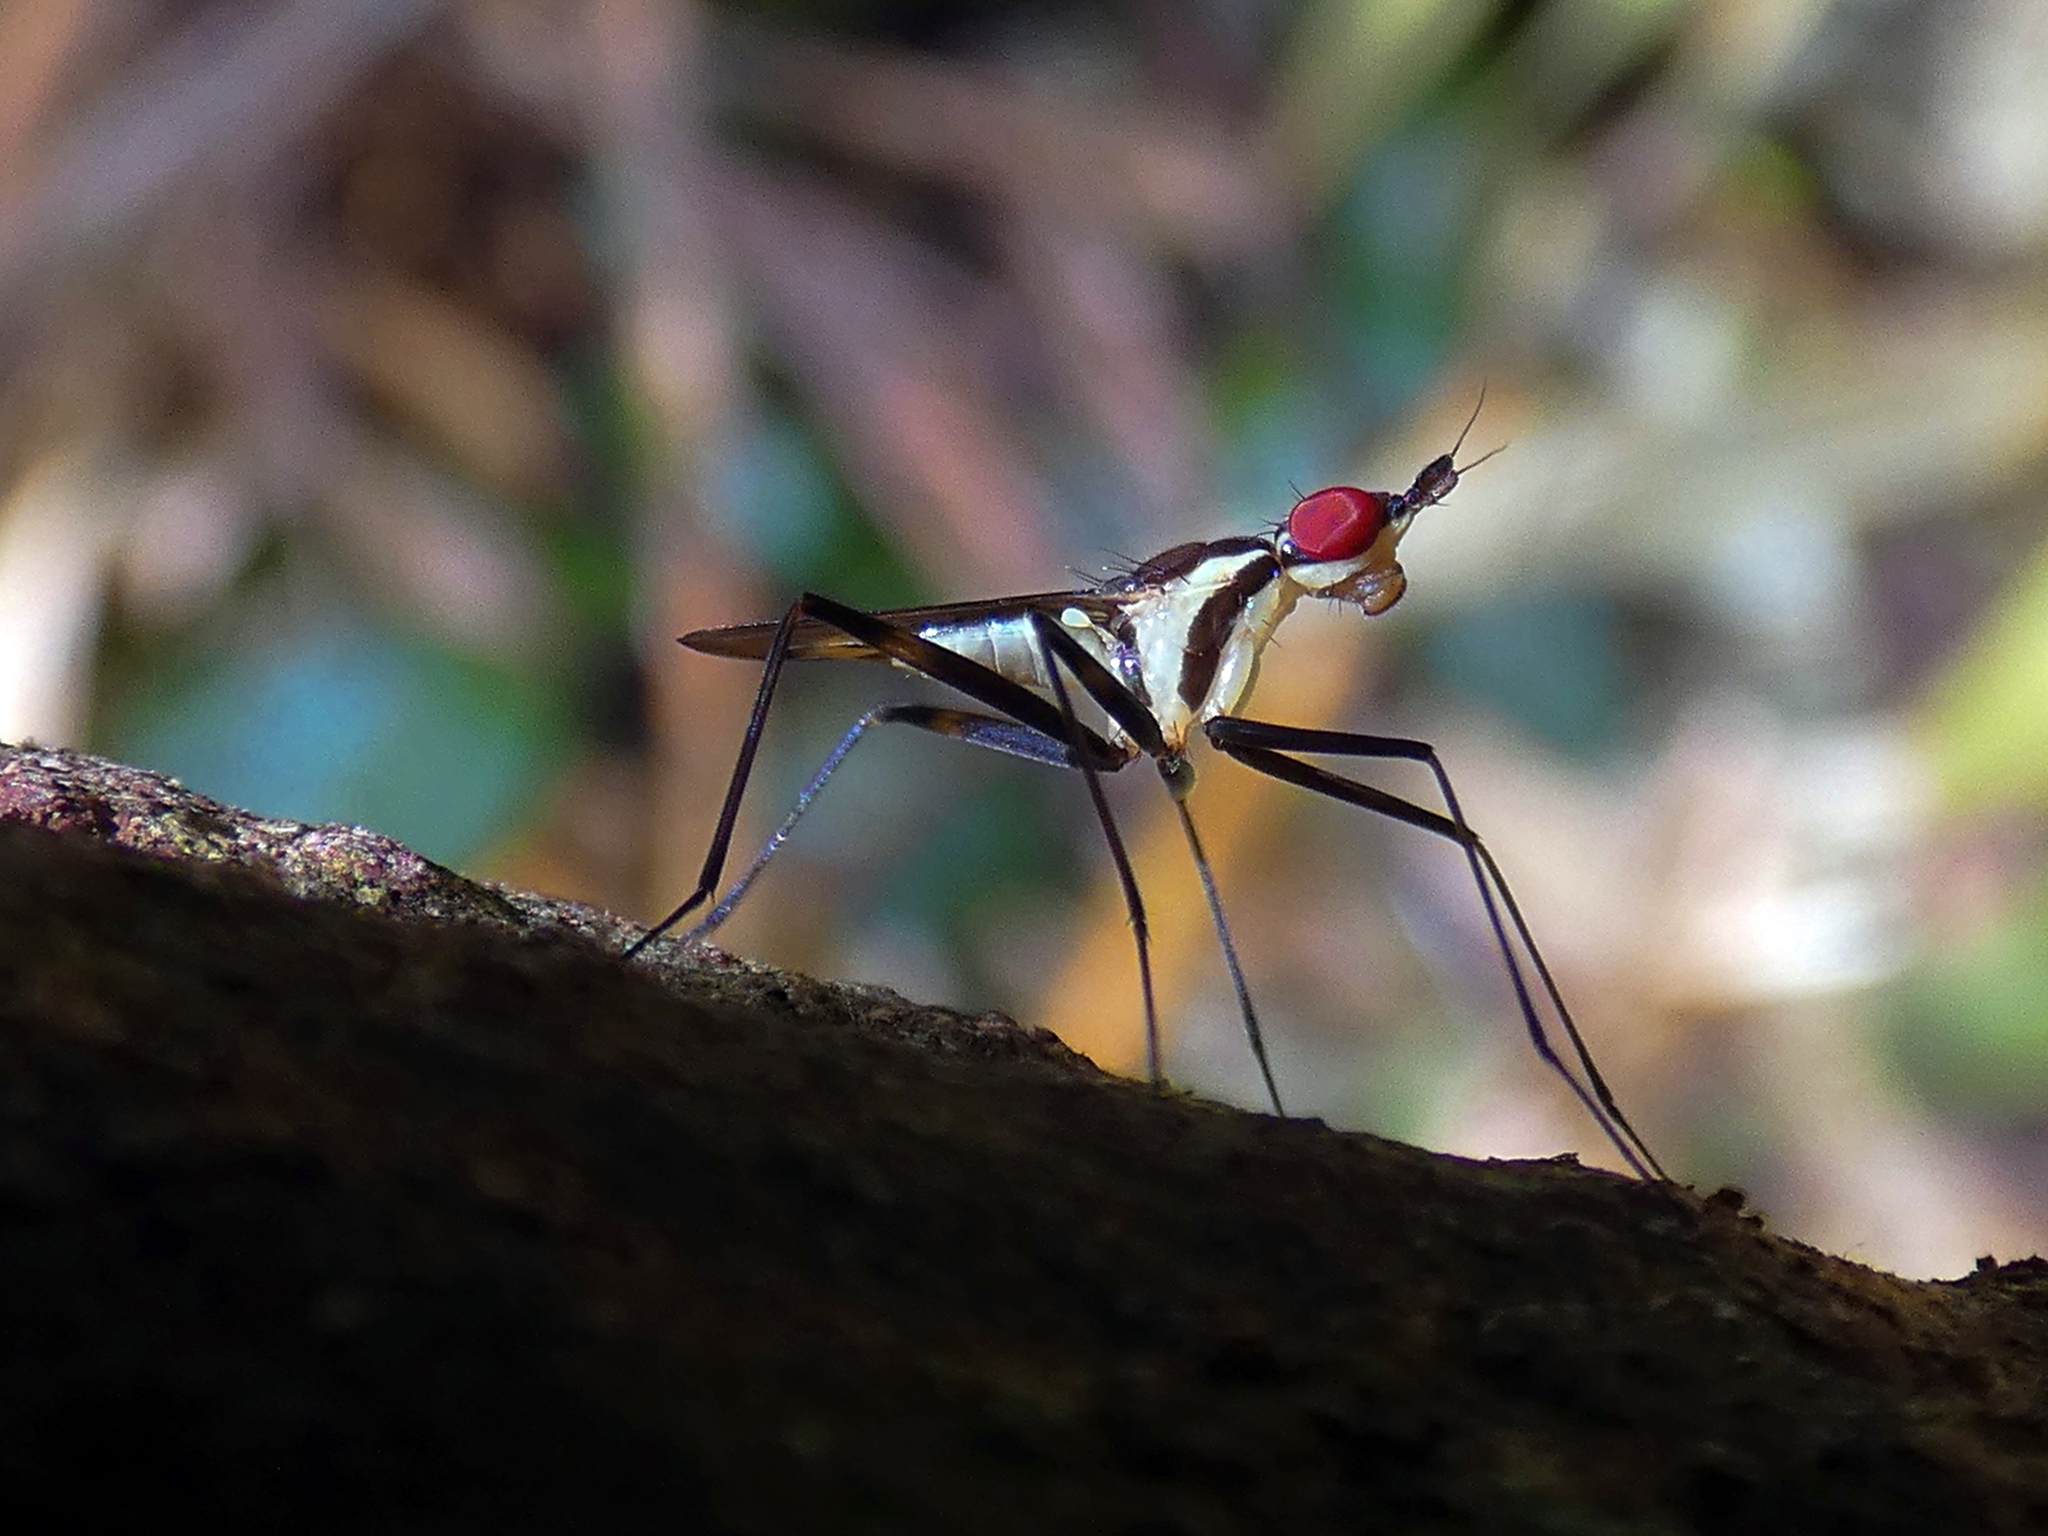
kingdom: Animalia
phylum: Arthropoda
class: Insecta
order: Diptera
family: Neriidae
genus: Telostylinus
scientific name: Telostylinus lineolatus
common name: Banana stalk fly
